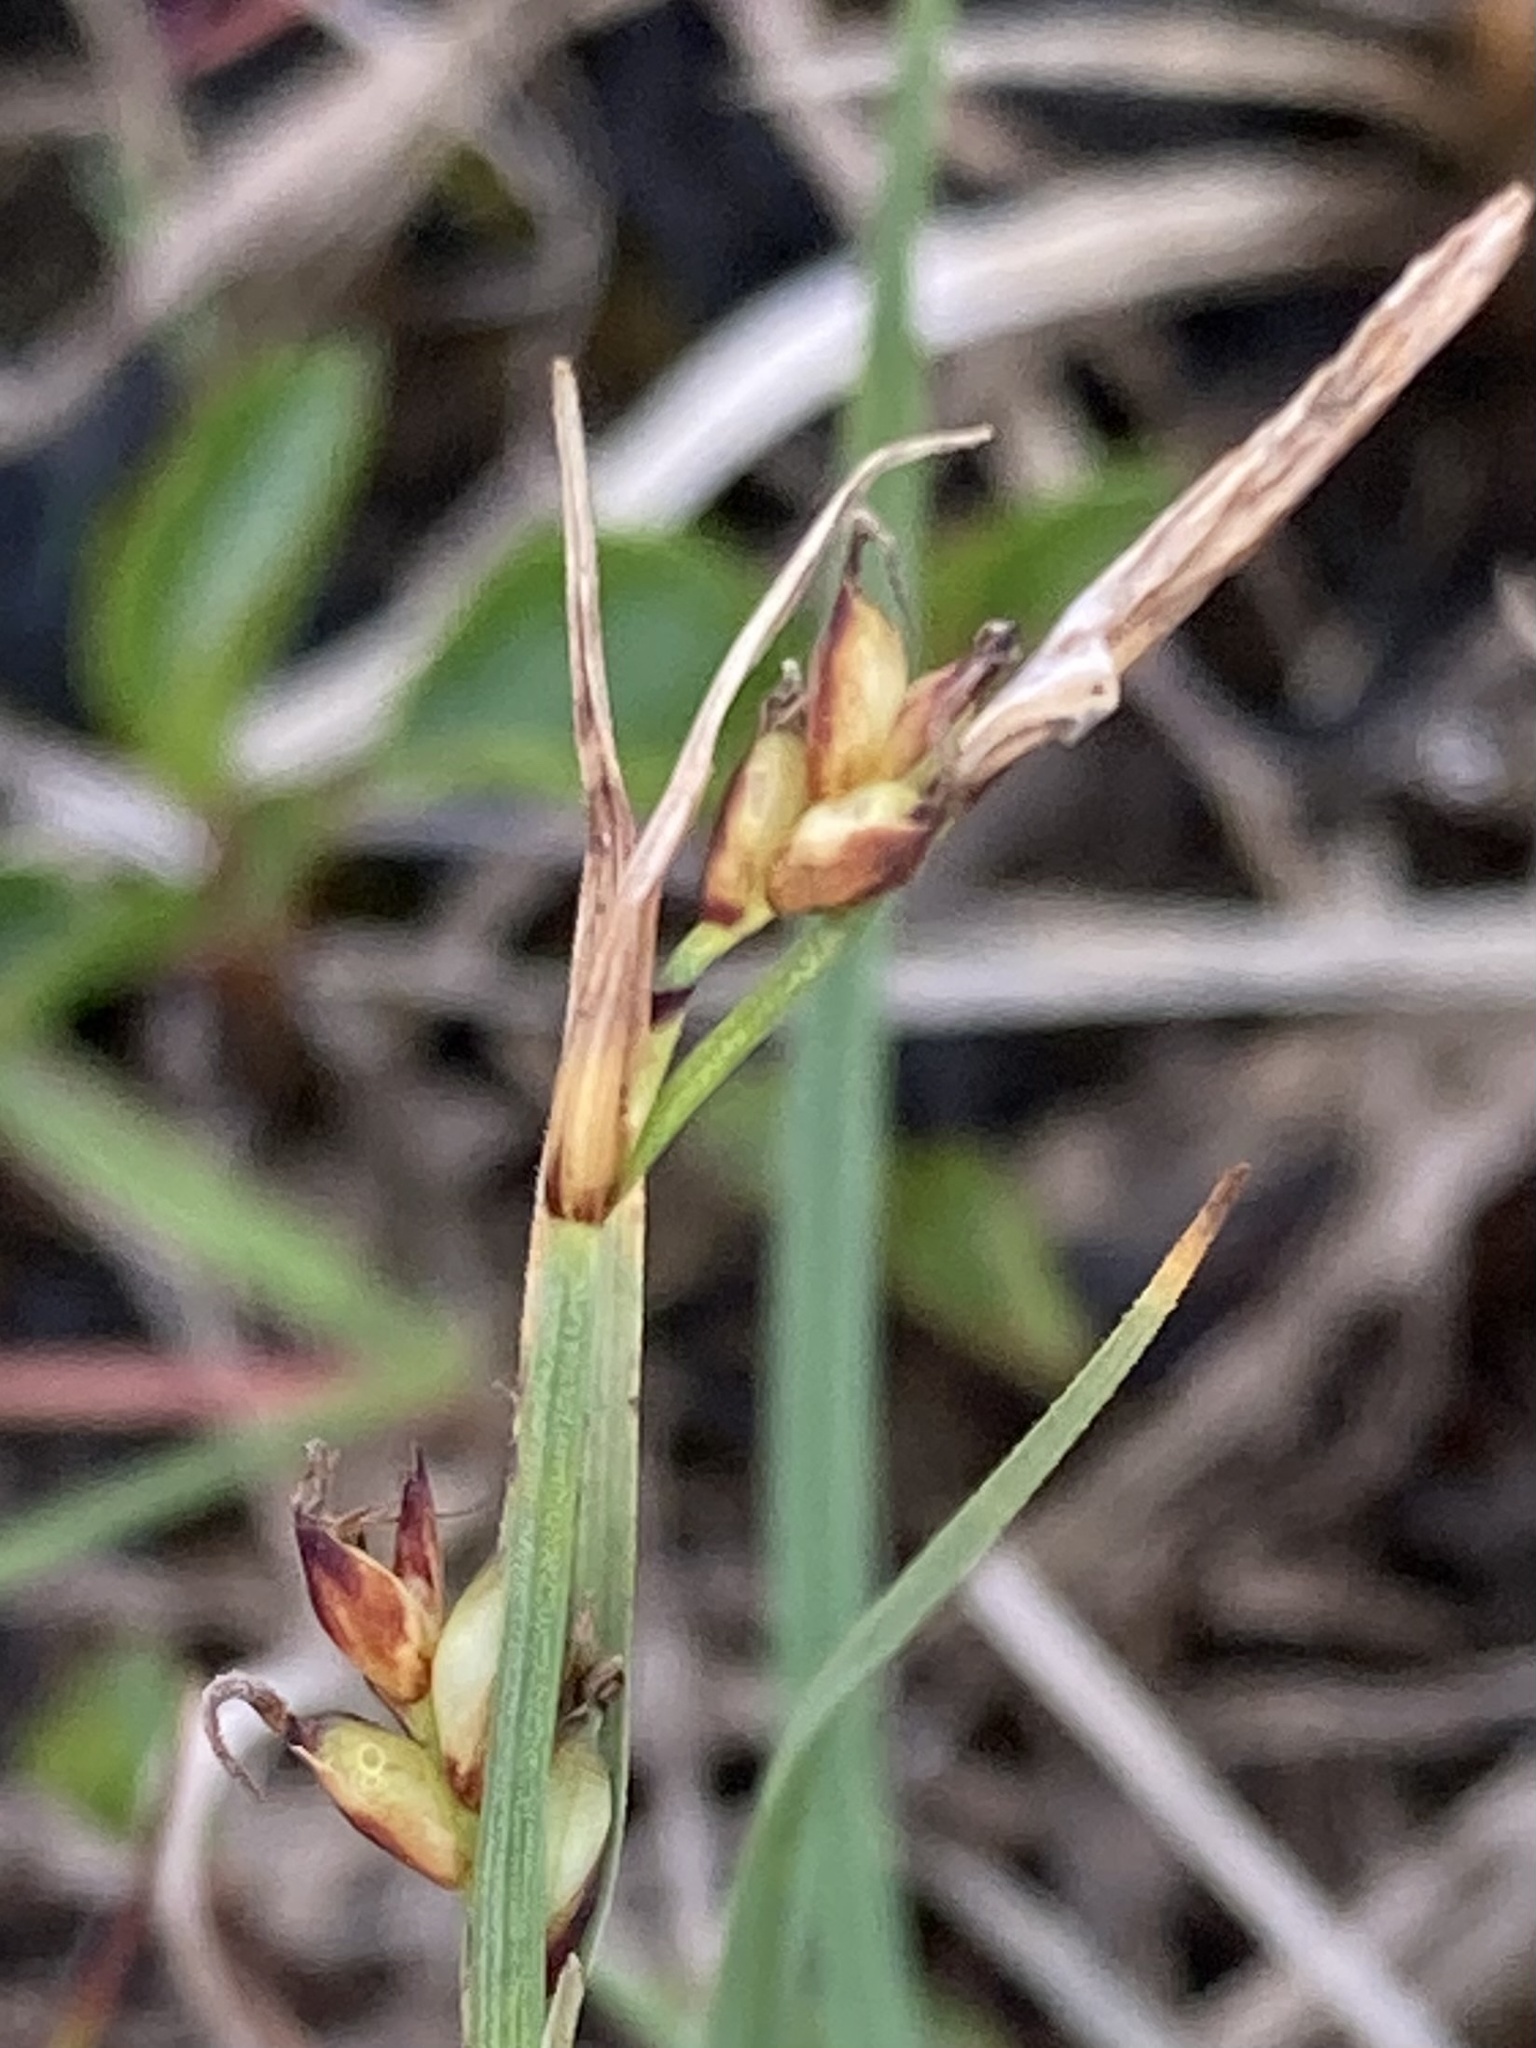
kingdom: Plantae
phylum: Tracheophyta
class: Liliopsida
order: Poales
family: Cyperaceae
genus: Carex
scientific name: Carex panicea
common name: Carnation sedge
